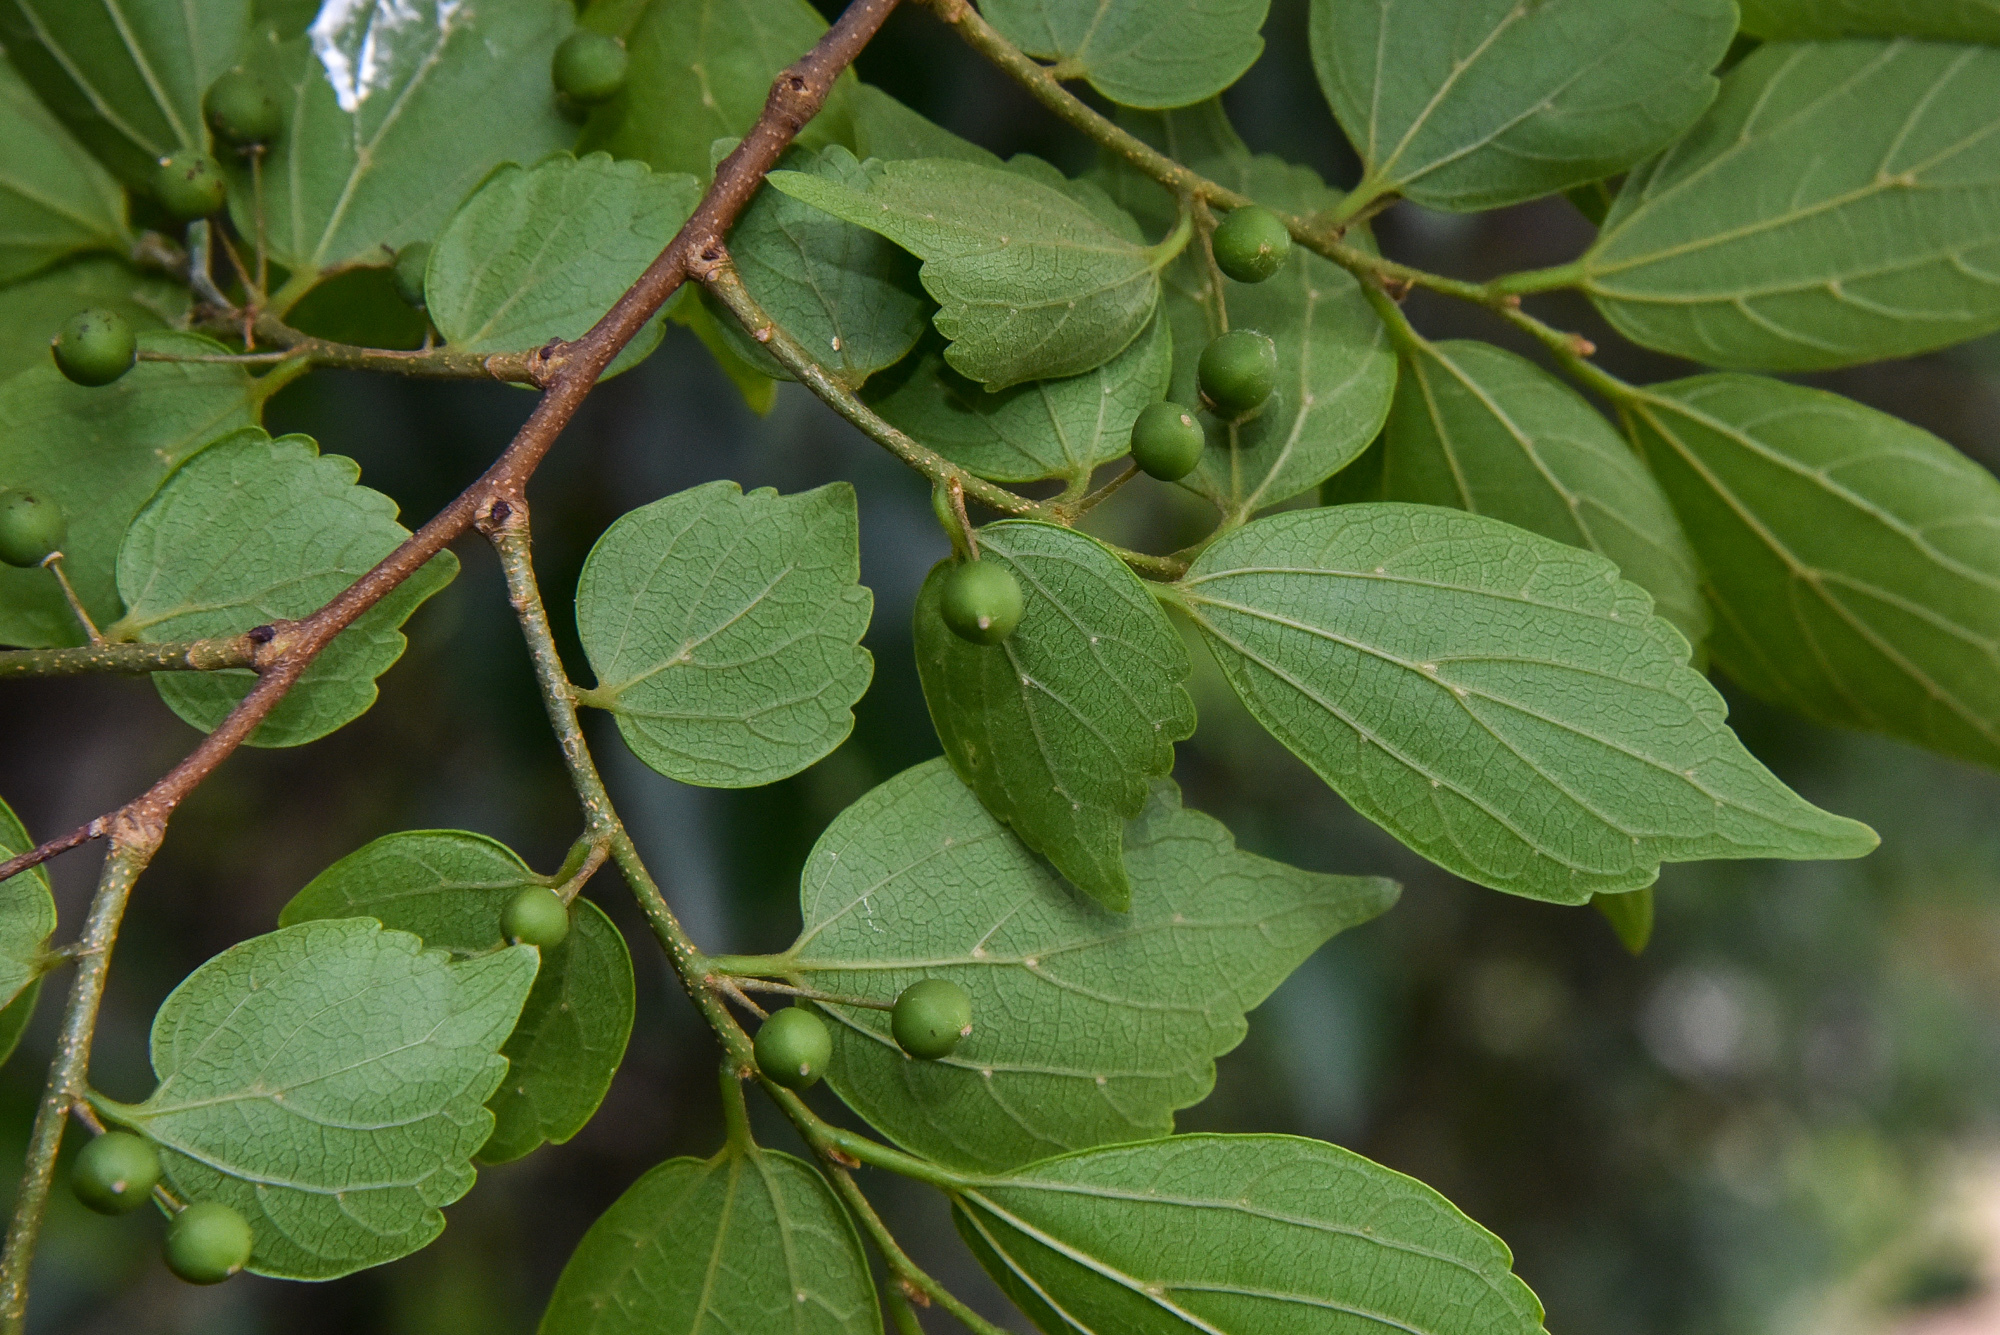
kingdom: Plantae
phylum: Tracheophyta
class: Magnoliopsida
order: Rosales
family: Cannabaceae
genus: Celtis
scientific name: Celtis biondii
